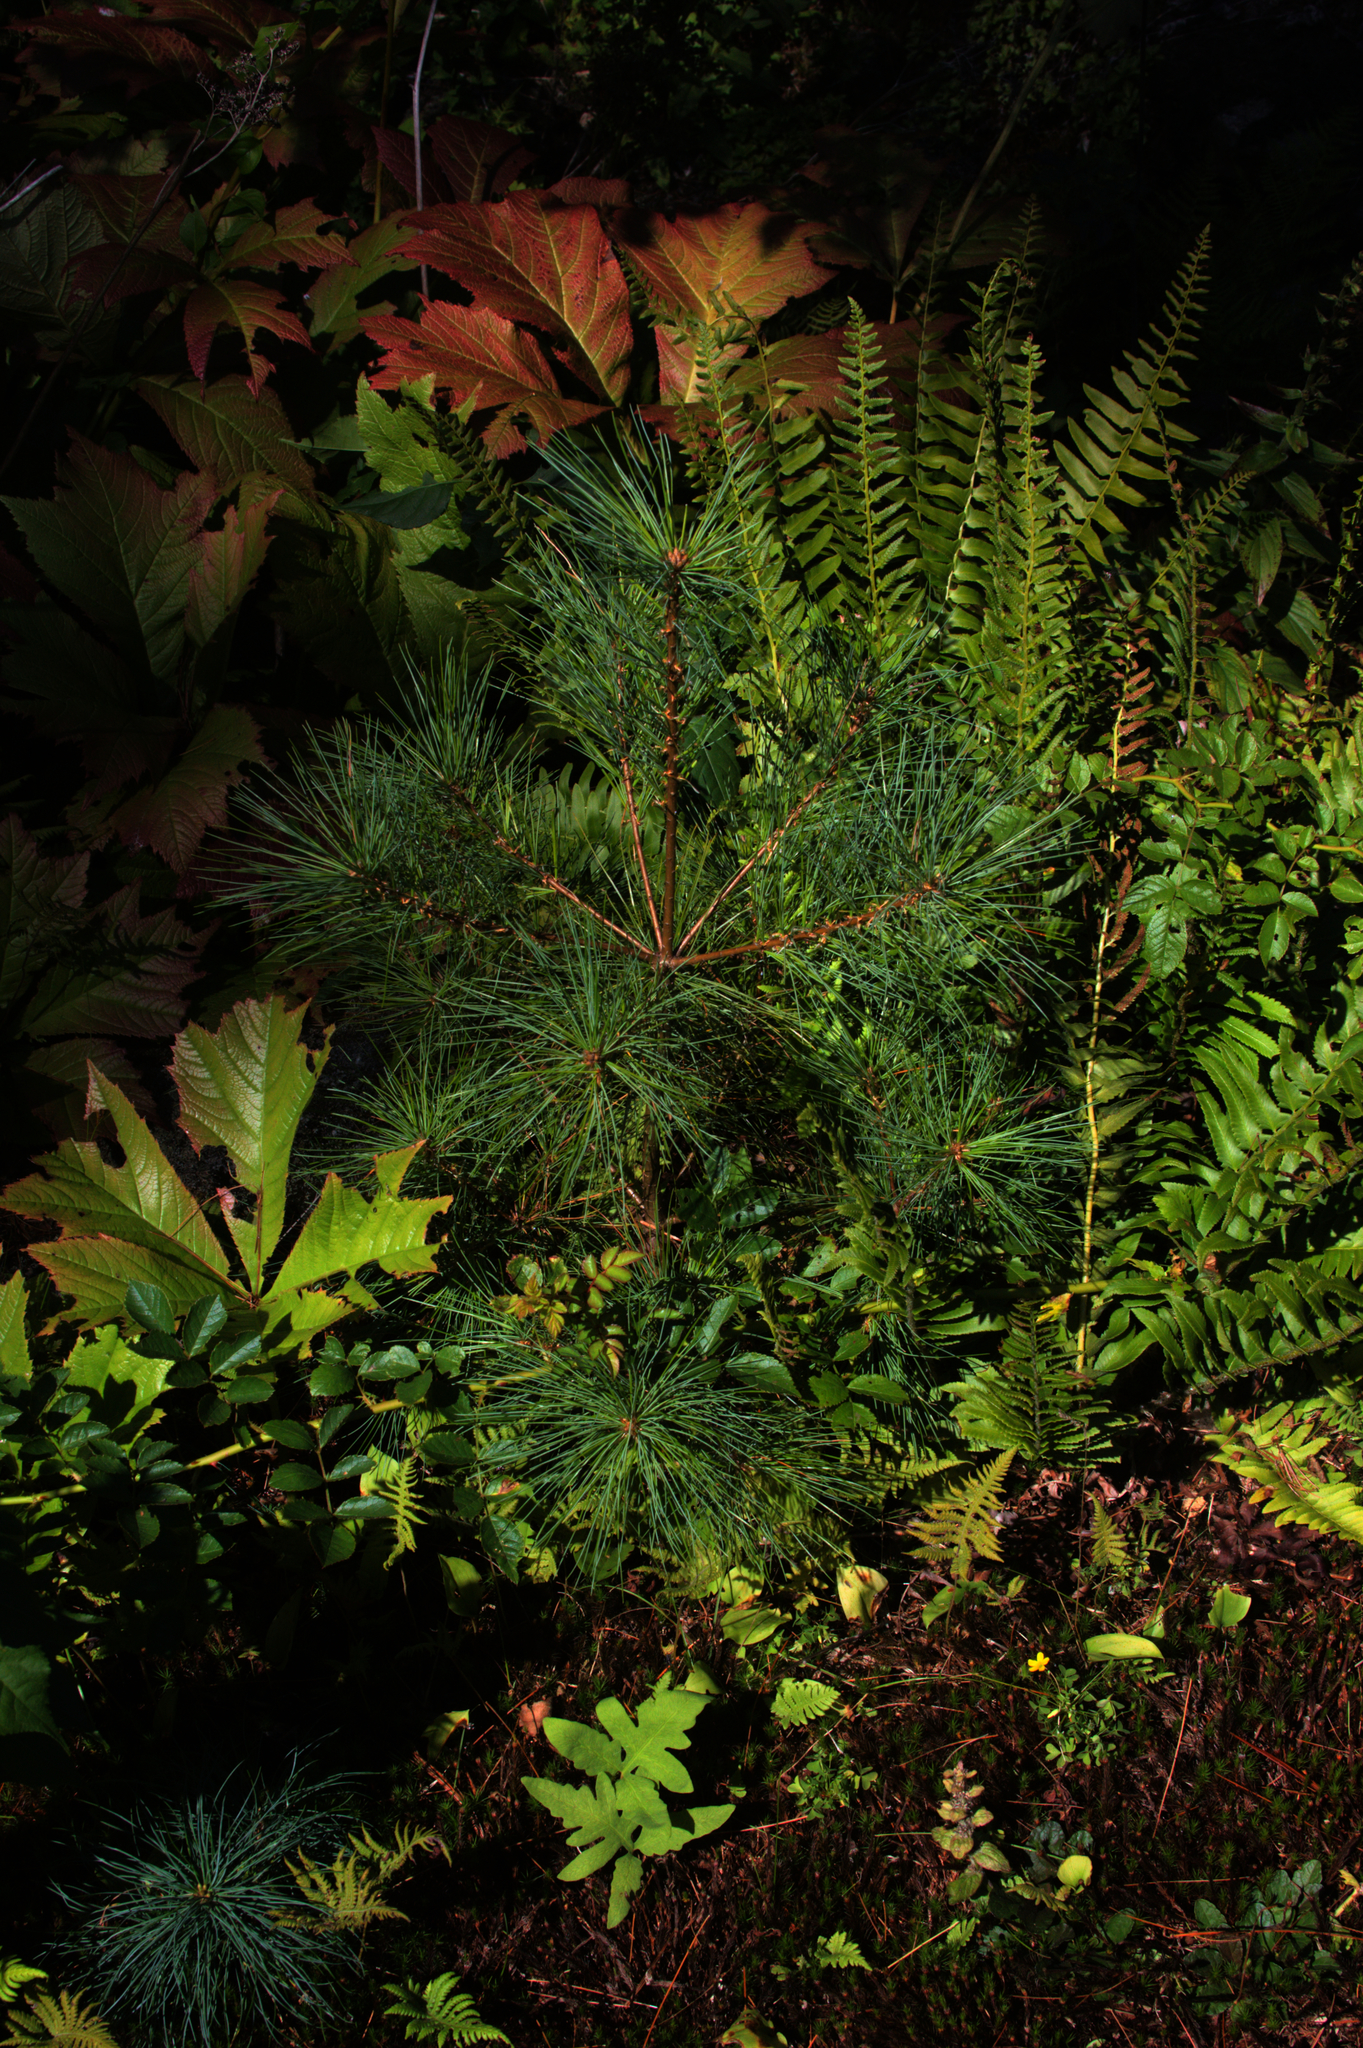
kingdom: Plantae
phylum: Tracheophyta
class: Pinopsida
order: Pinales
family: Pinaceae
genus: Pinus
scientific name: Pinus strobus
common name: Weymouth pine
